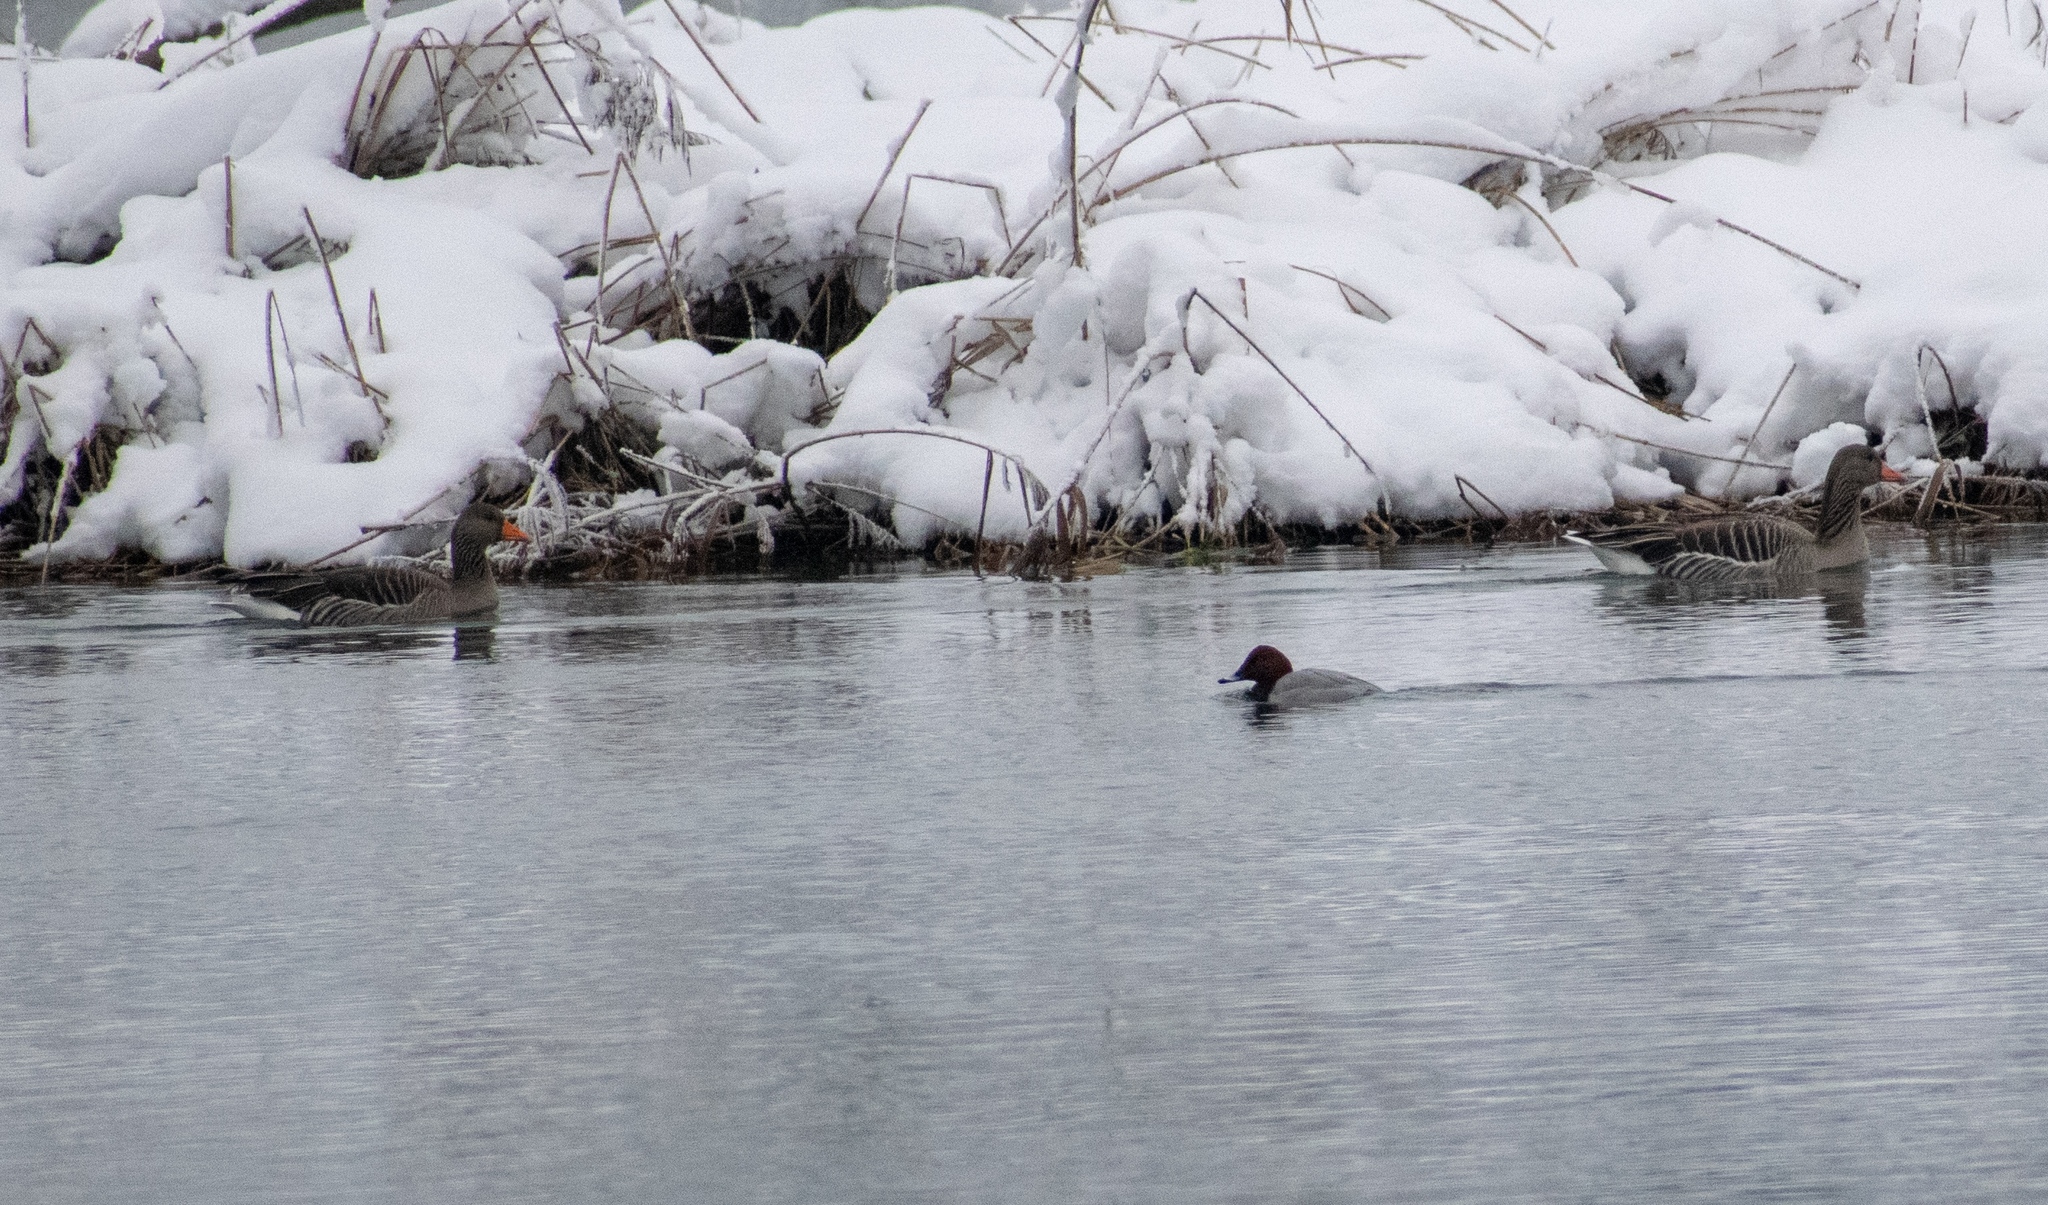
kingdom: Animalia
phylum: Chordata
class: Aves
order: Anseriformes
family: Anatidae
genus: Anser
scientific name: Anser anser
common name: Greylag goose
